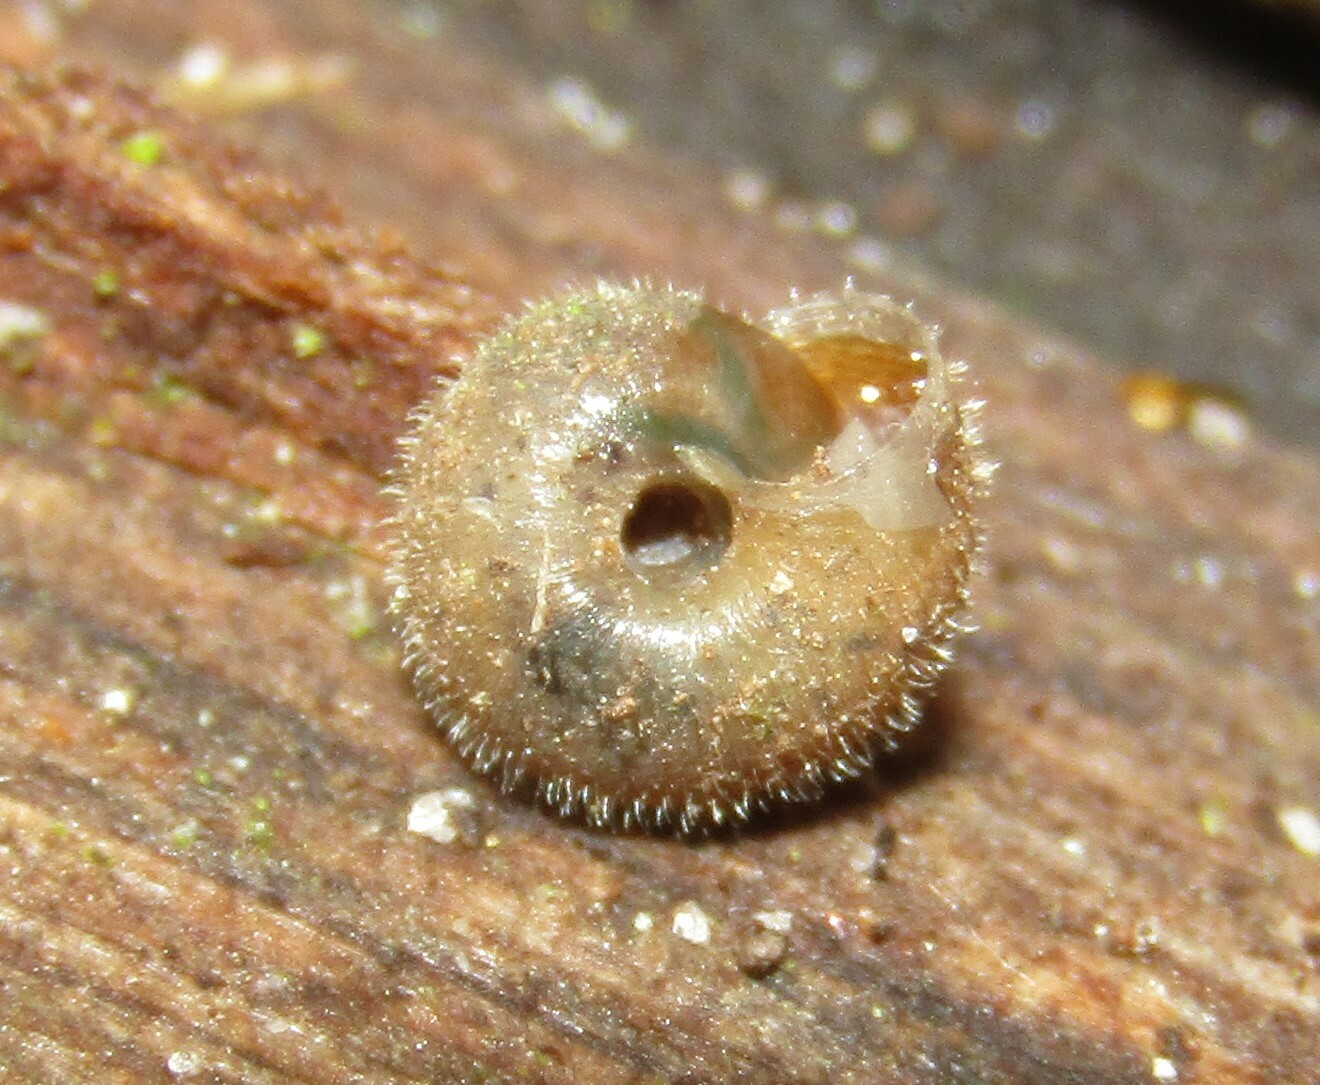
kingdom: Animalia
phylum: Mollusca
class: Gastropoda
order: Stylommatophora
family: Hygromiidae
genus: Trochulus
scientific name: Trochulus hispidus
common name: Hairy snail
